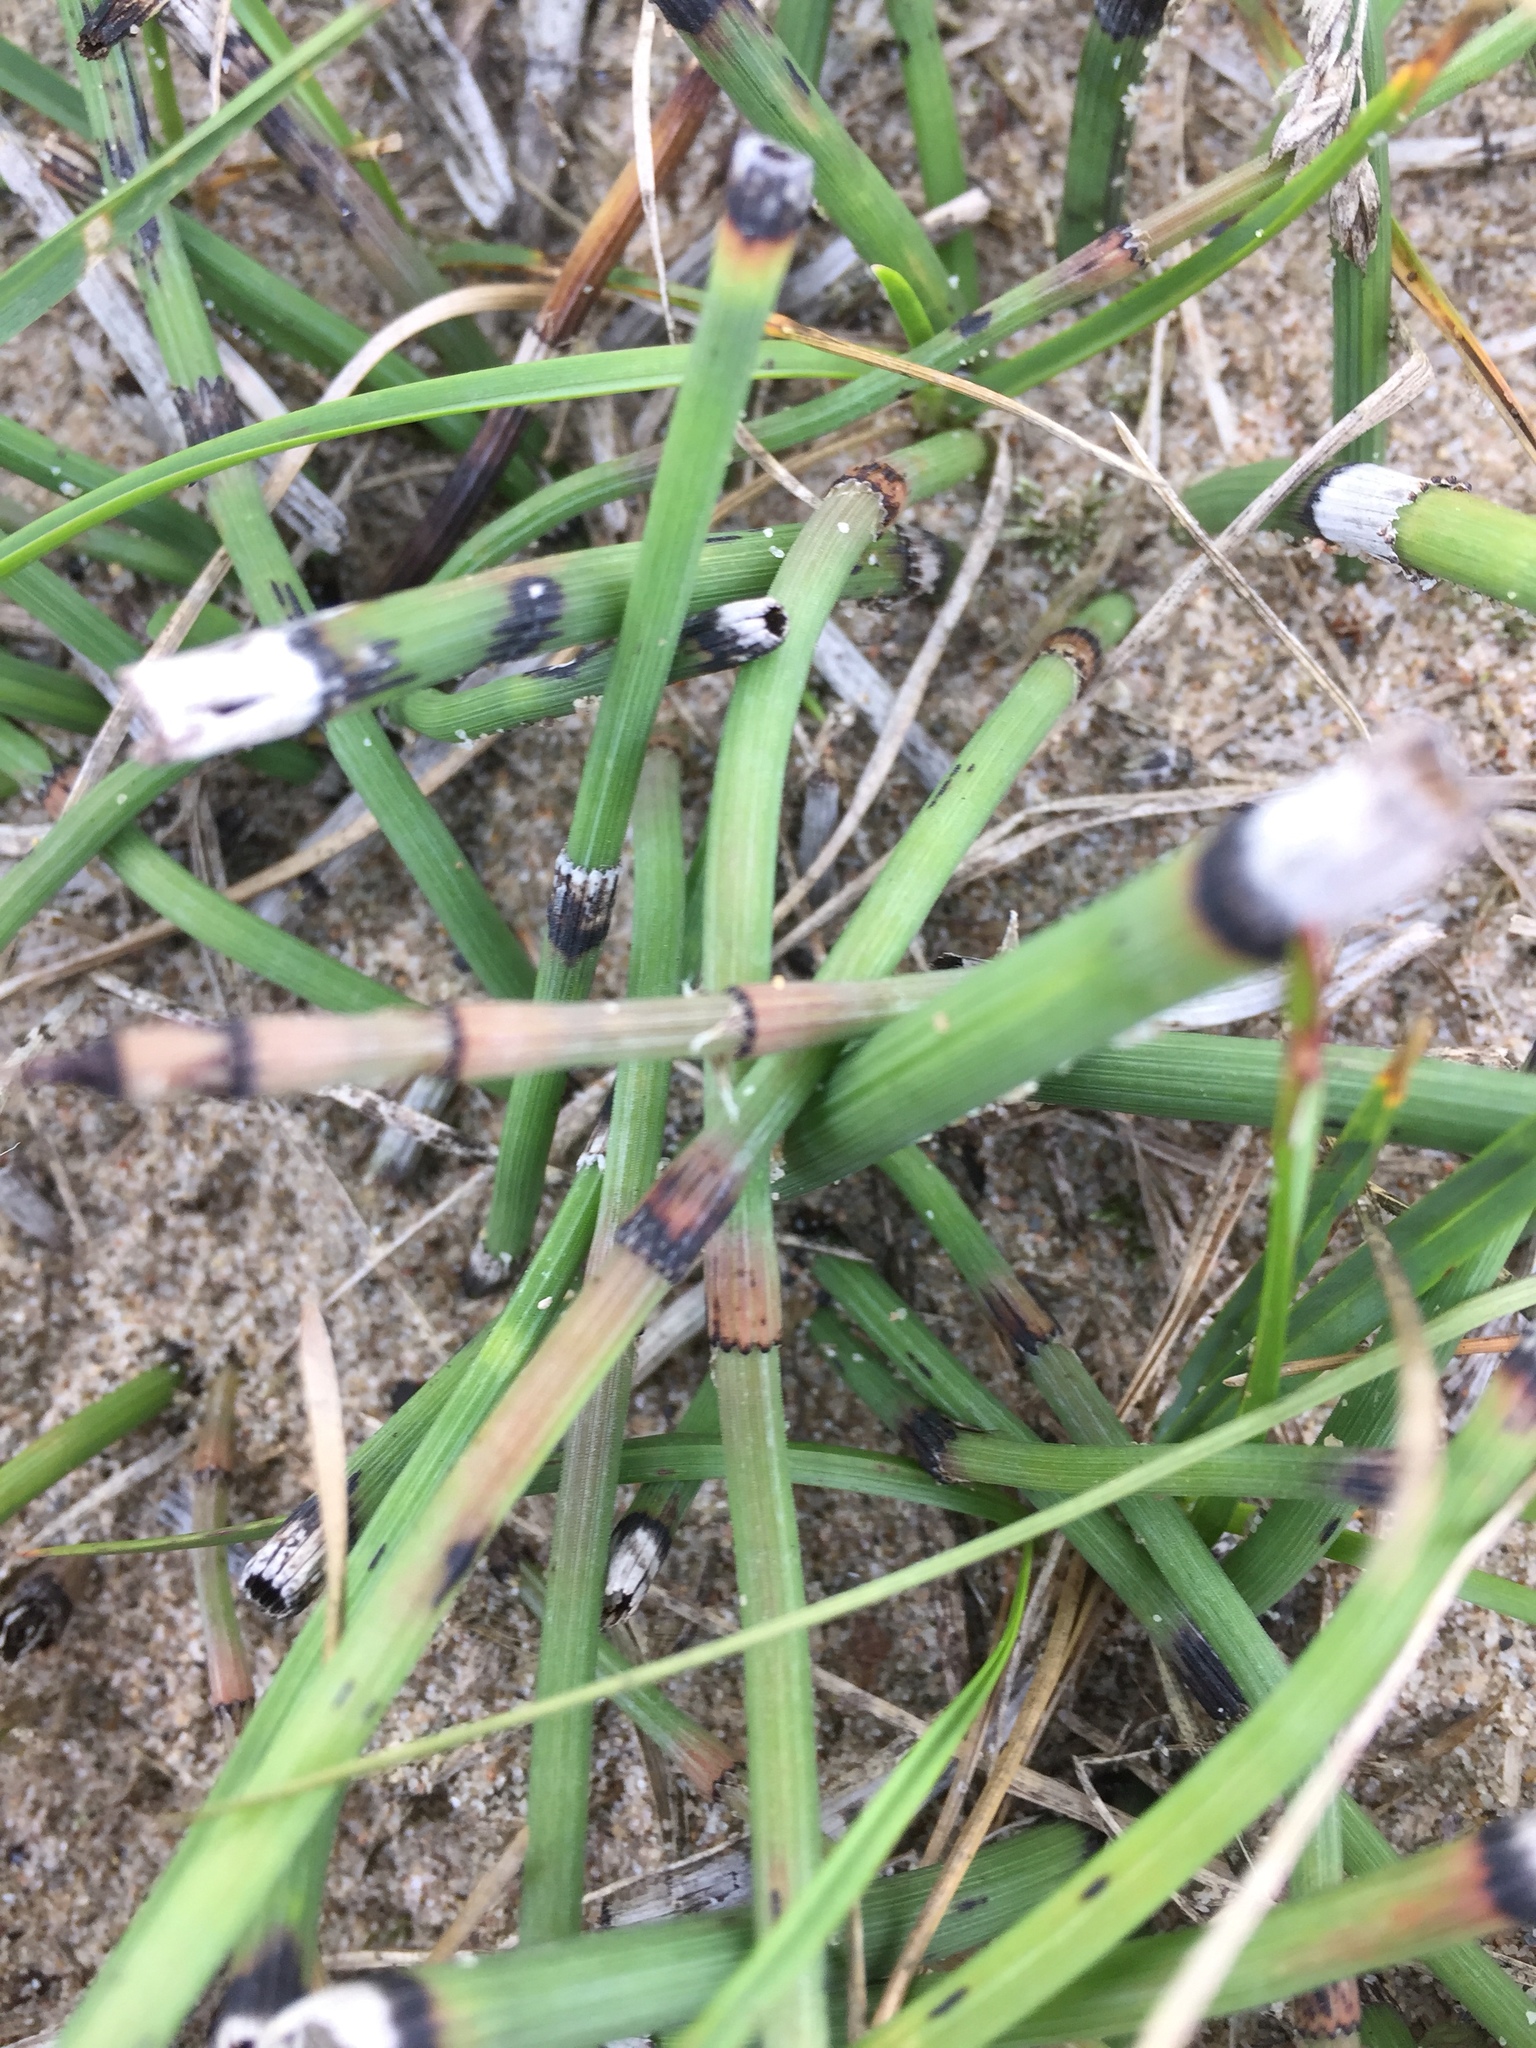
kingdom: Plantae
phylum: Tracheophyta
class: Polypodiopsida
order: Equisetales
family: Equisetaceae
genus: Equisetum
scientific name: Equisetum moorei
